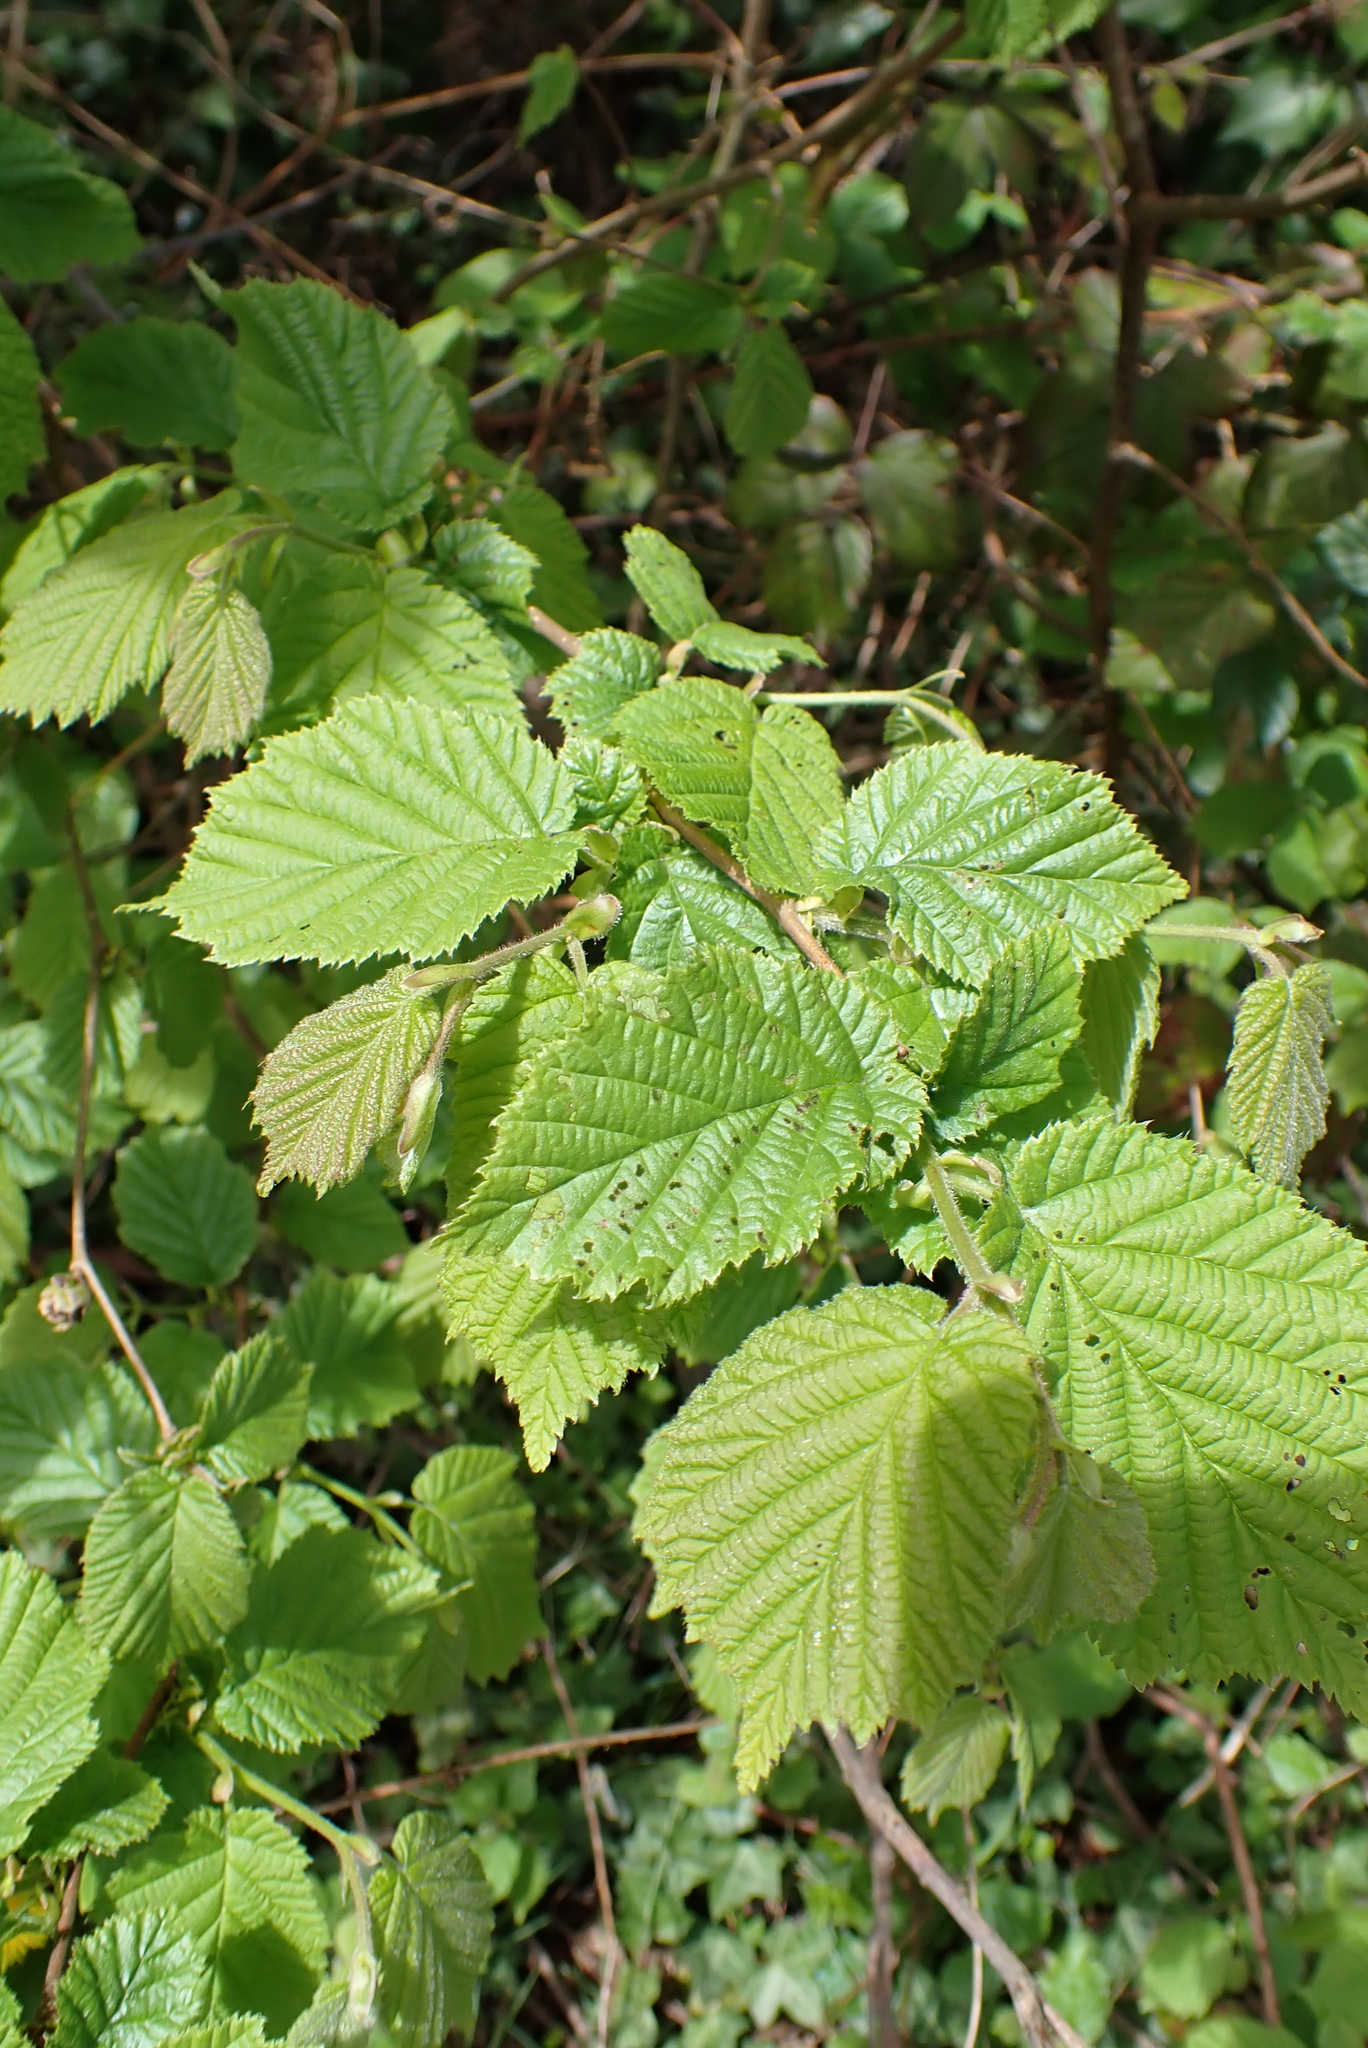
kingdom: Plantae
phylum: Tracheophyta
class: Magnoliopsida
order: Fagales
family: Betulaceae
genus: Corylus
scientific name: Corylus avellana
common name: European hazel
